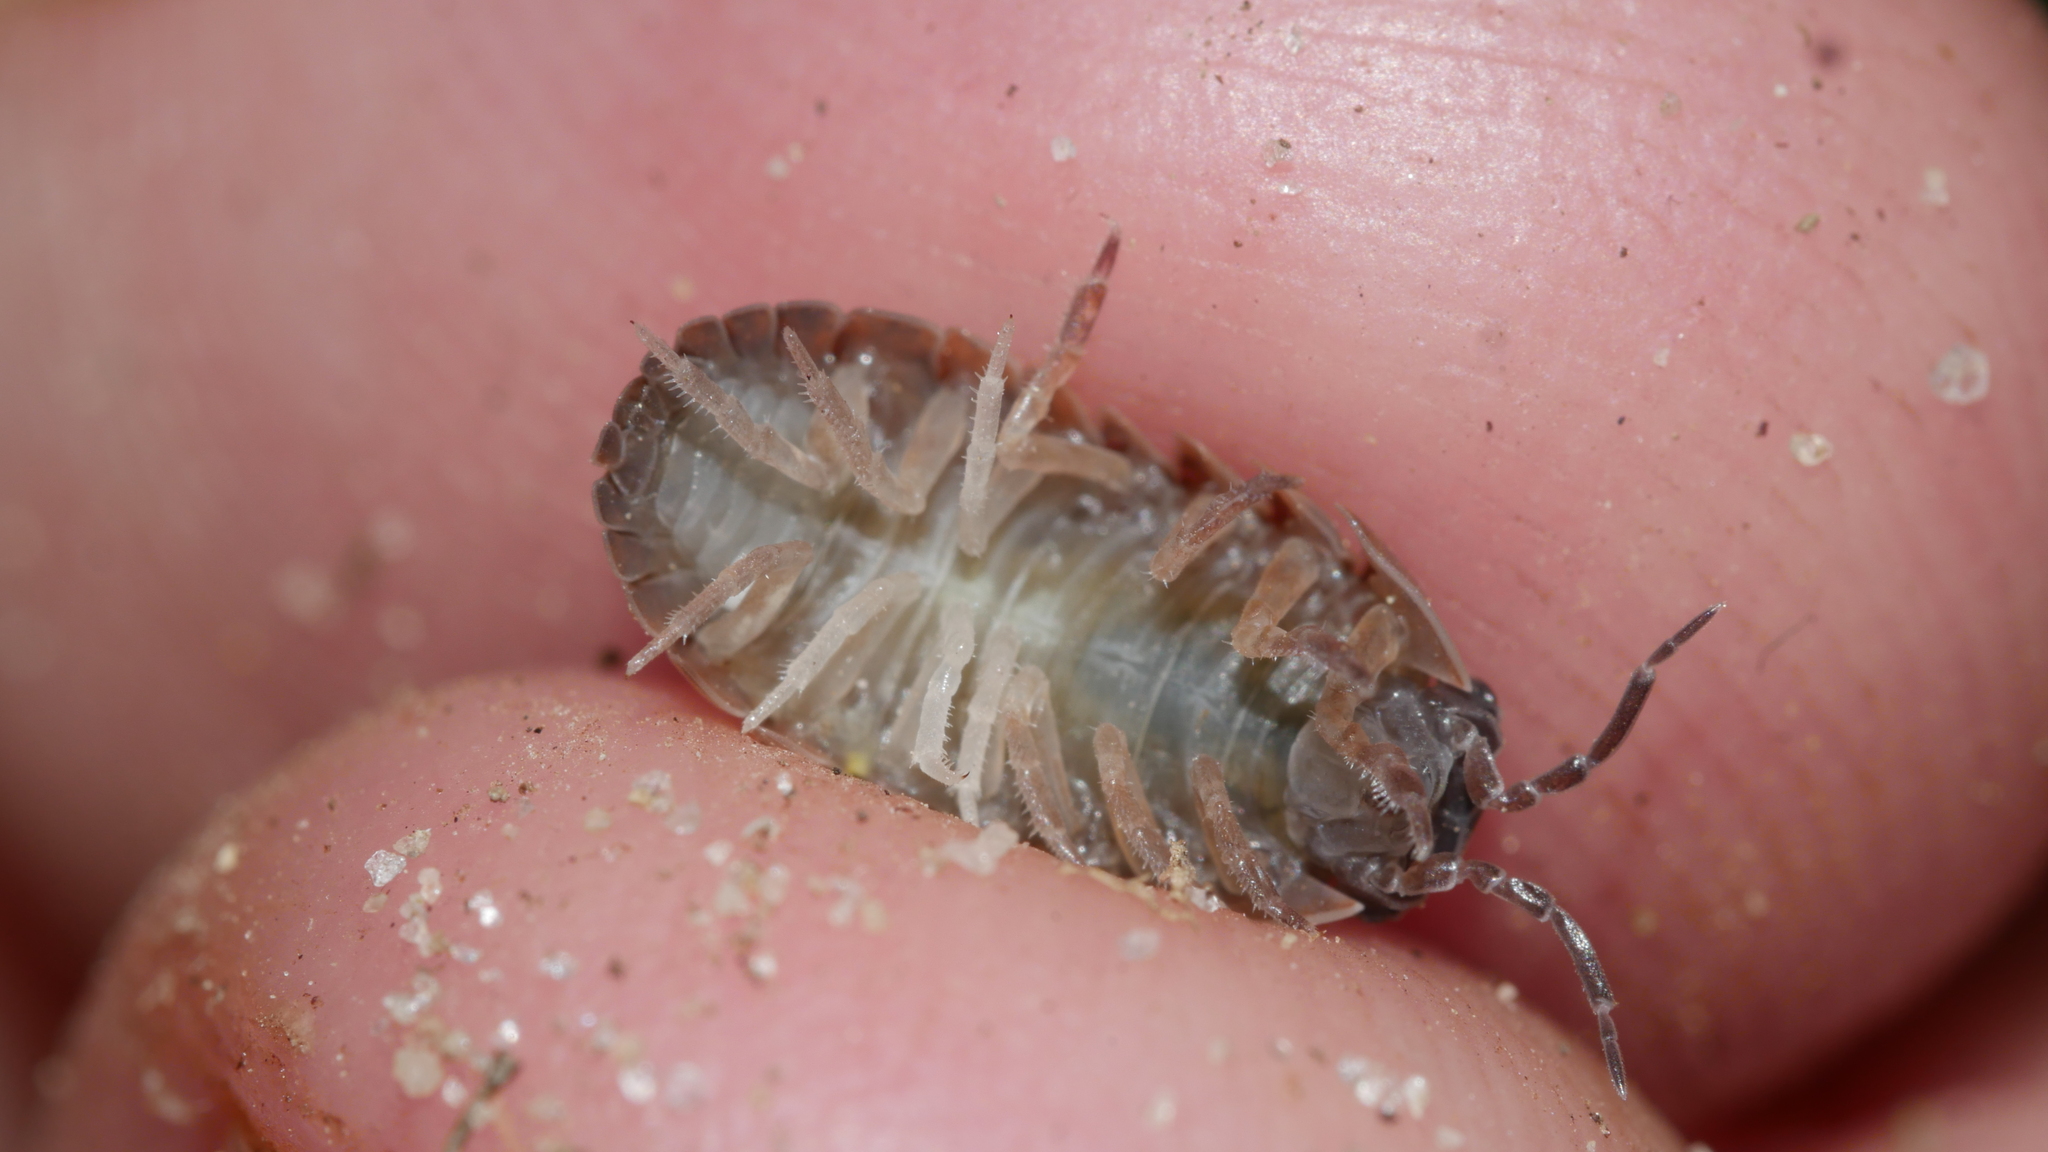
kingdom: Animalia
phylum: Arthropoda
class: Malacostraca
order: Isopoda
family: Armadillidiidae
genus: Armadillidium
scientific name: Armadillidium vulgare
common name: Common pill woodlouse
